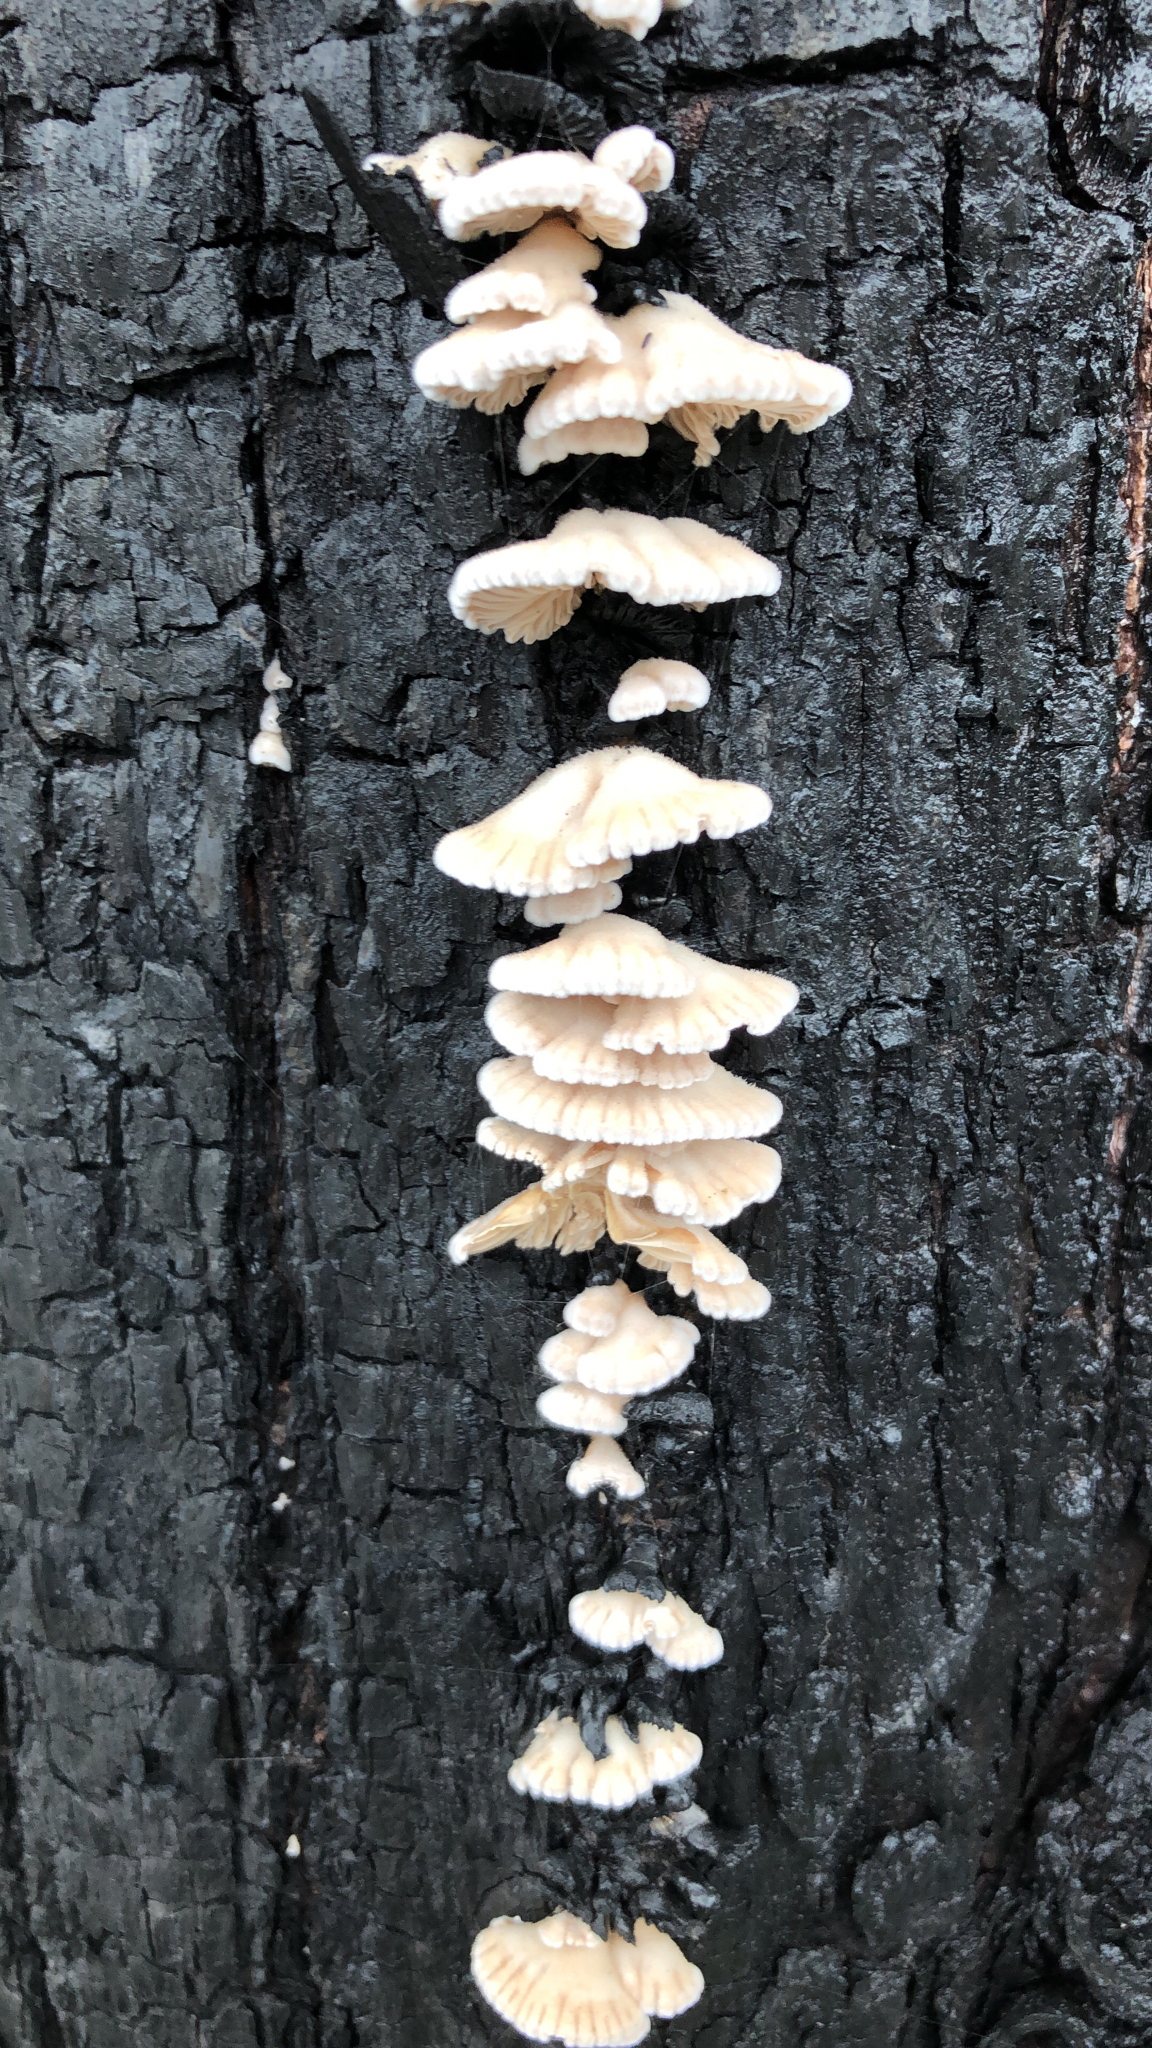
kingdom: Fungi
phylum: Basidiomycota
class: Agaricomycetes
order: Agaricales
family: Schizophyllaceae
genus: Schizophyllum
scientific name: Schizophyllum commune
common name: Common porecrust
